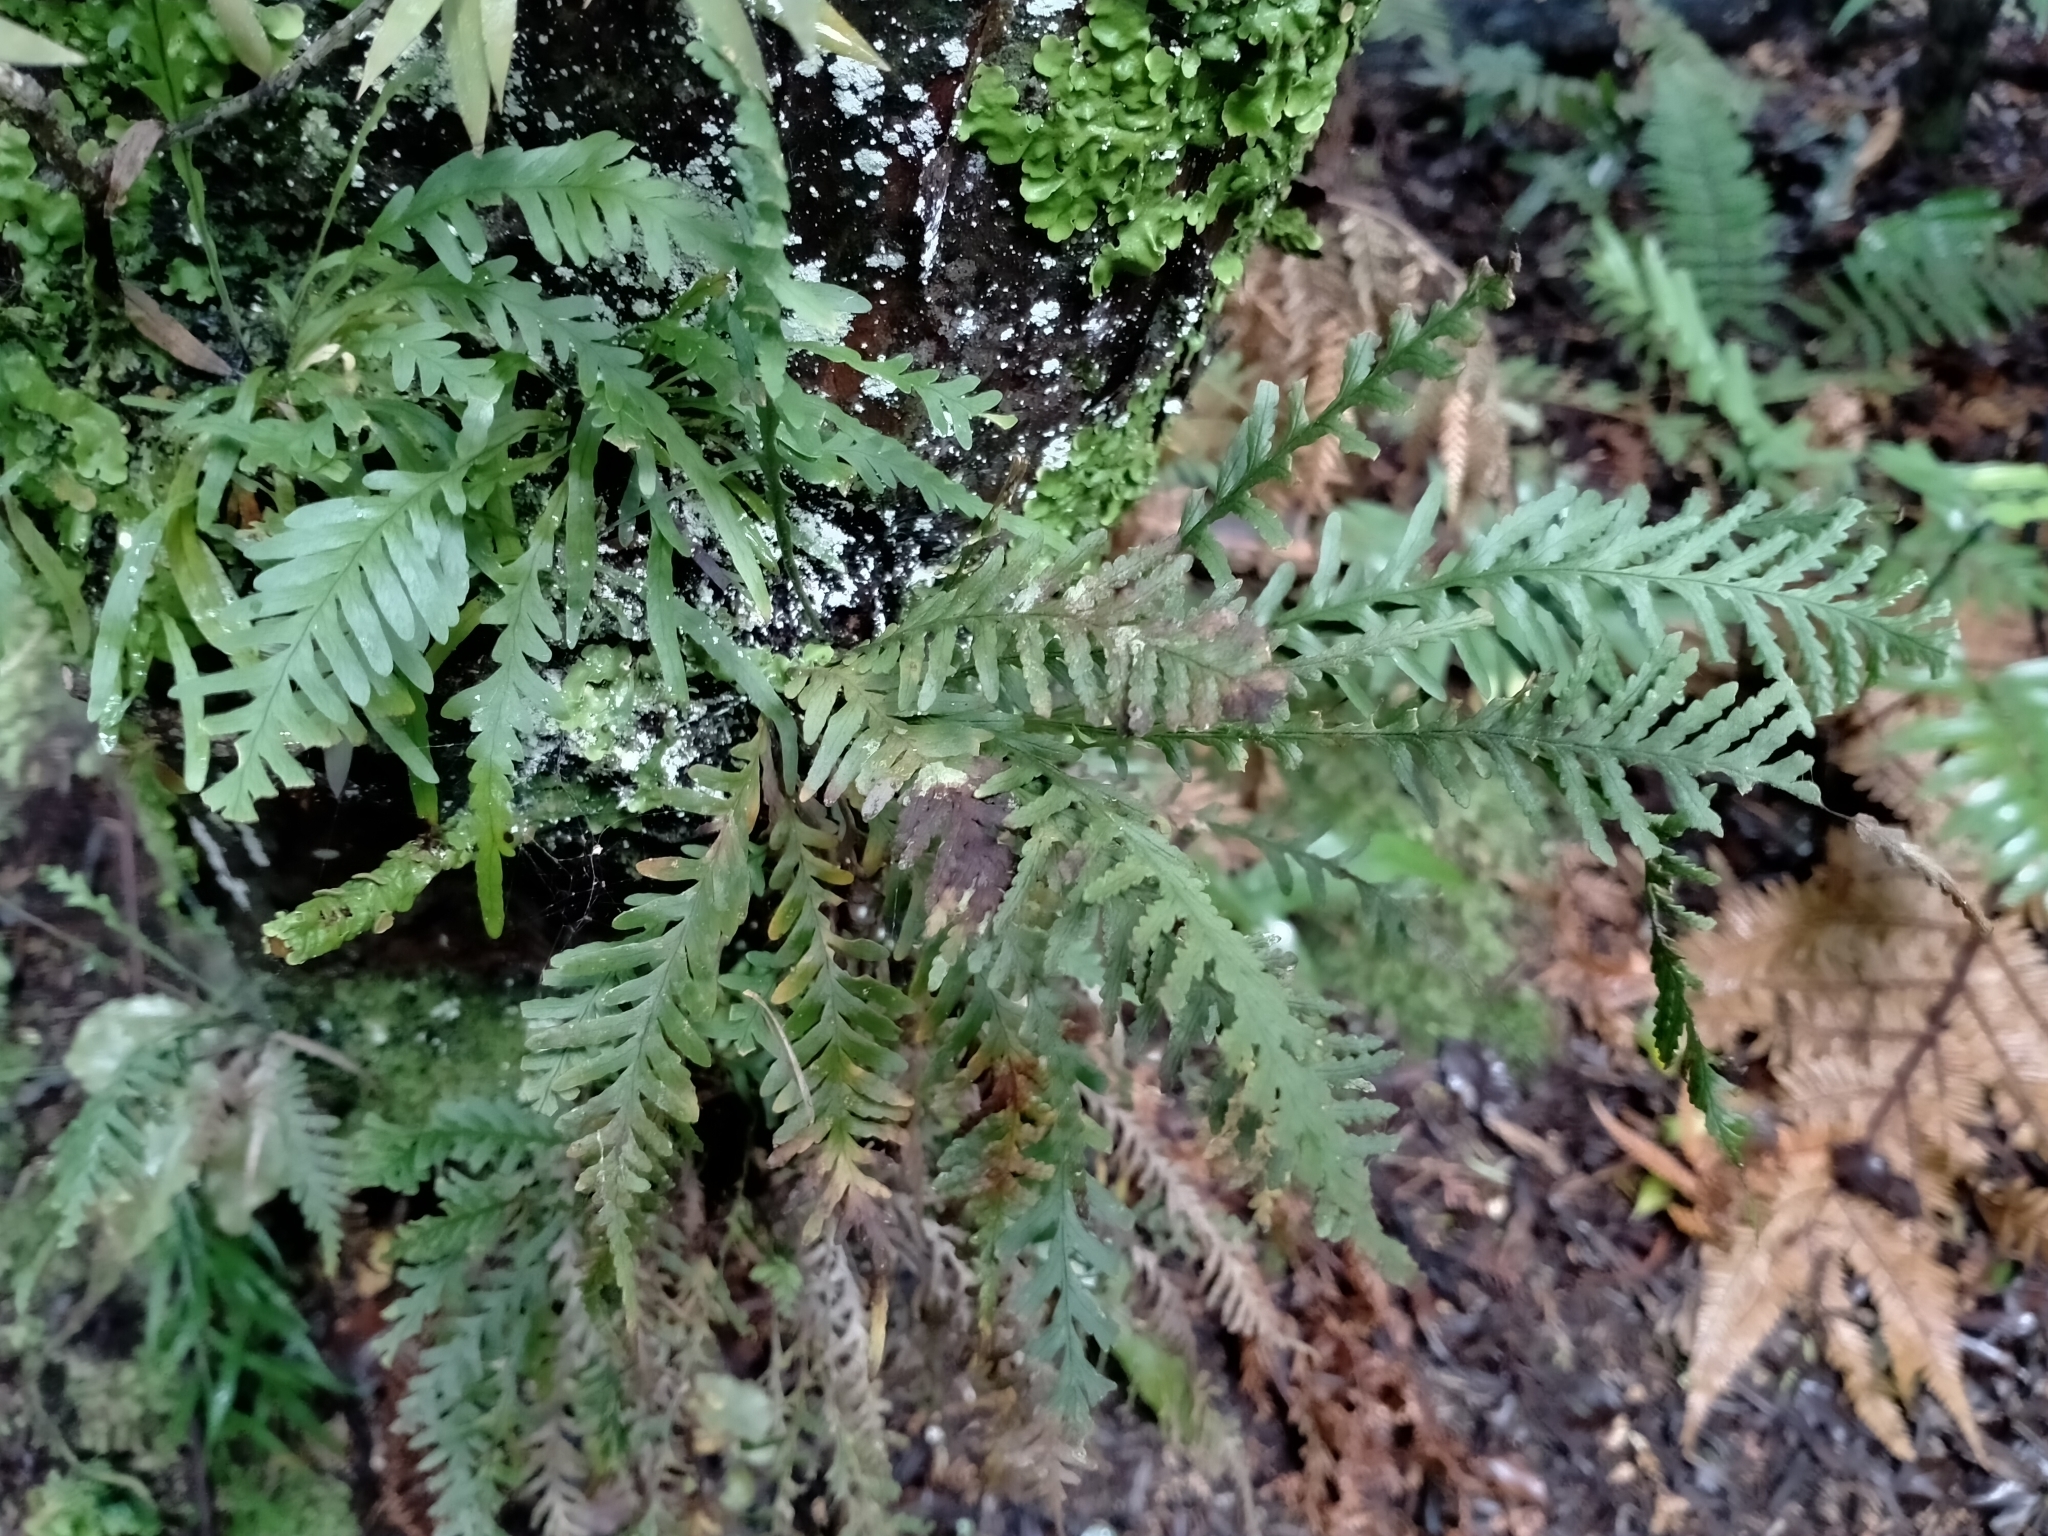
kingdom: Plantae
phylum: Tracheophyta
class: Polypodiopsida
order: Polypodiales
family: Polypodiaceae
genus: Notogrammitis
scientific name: Notogrammitis heterophylla
